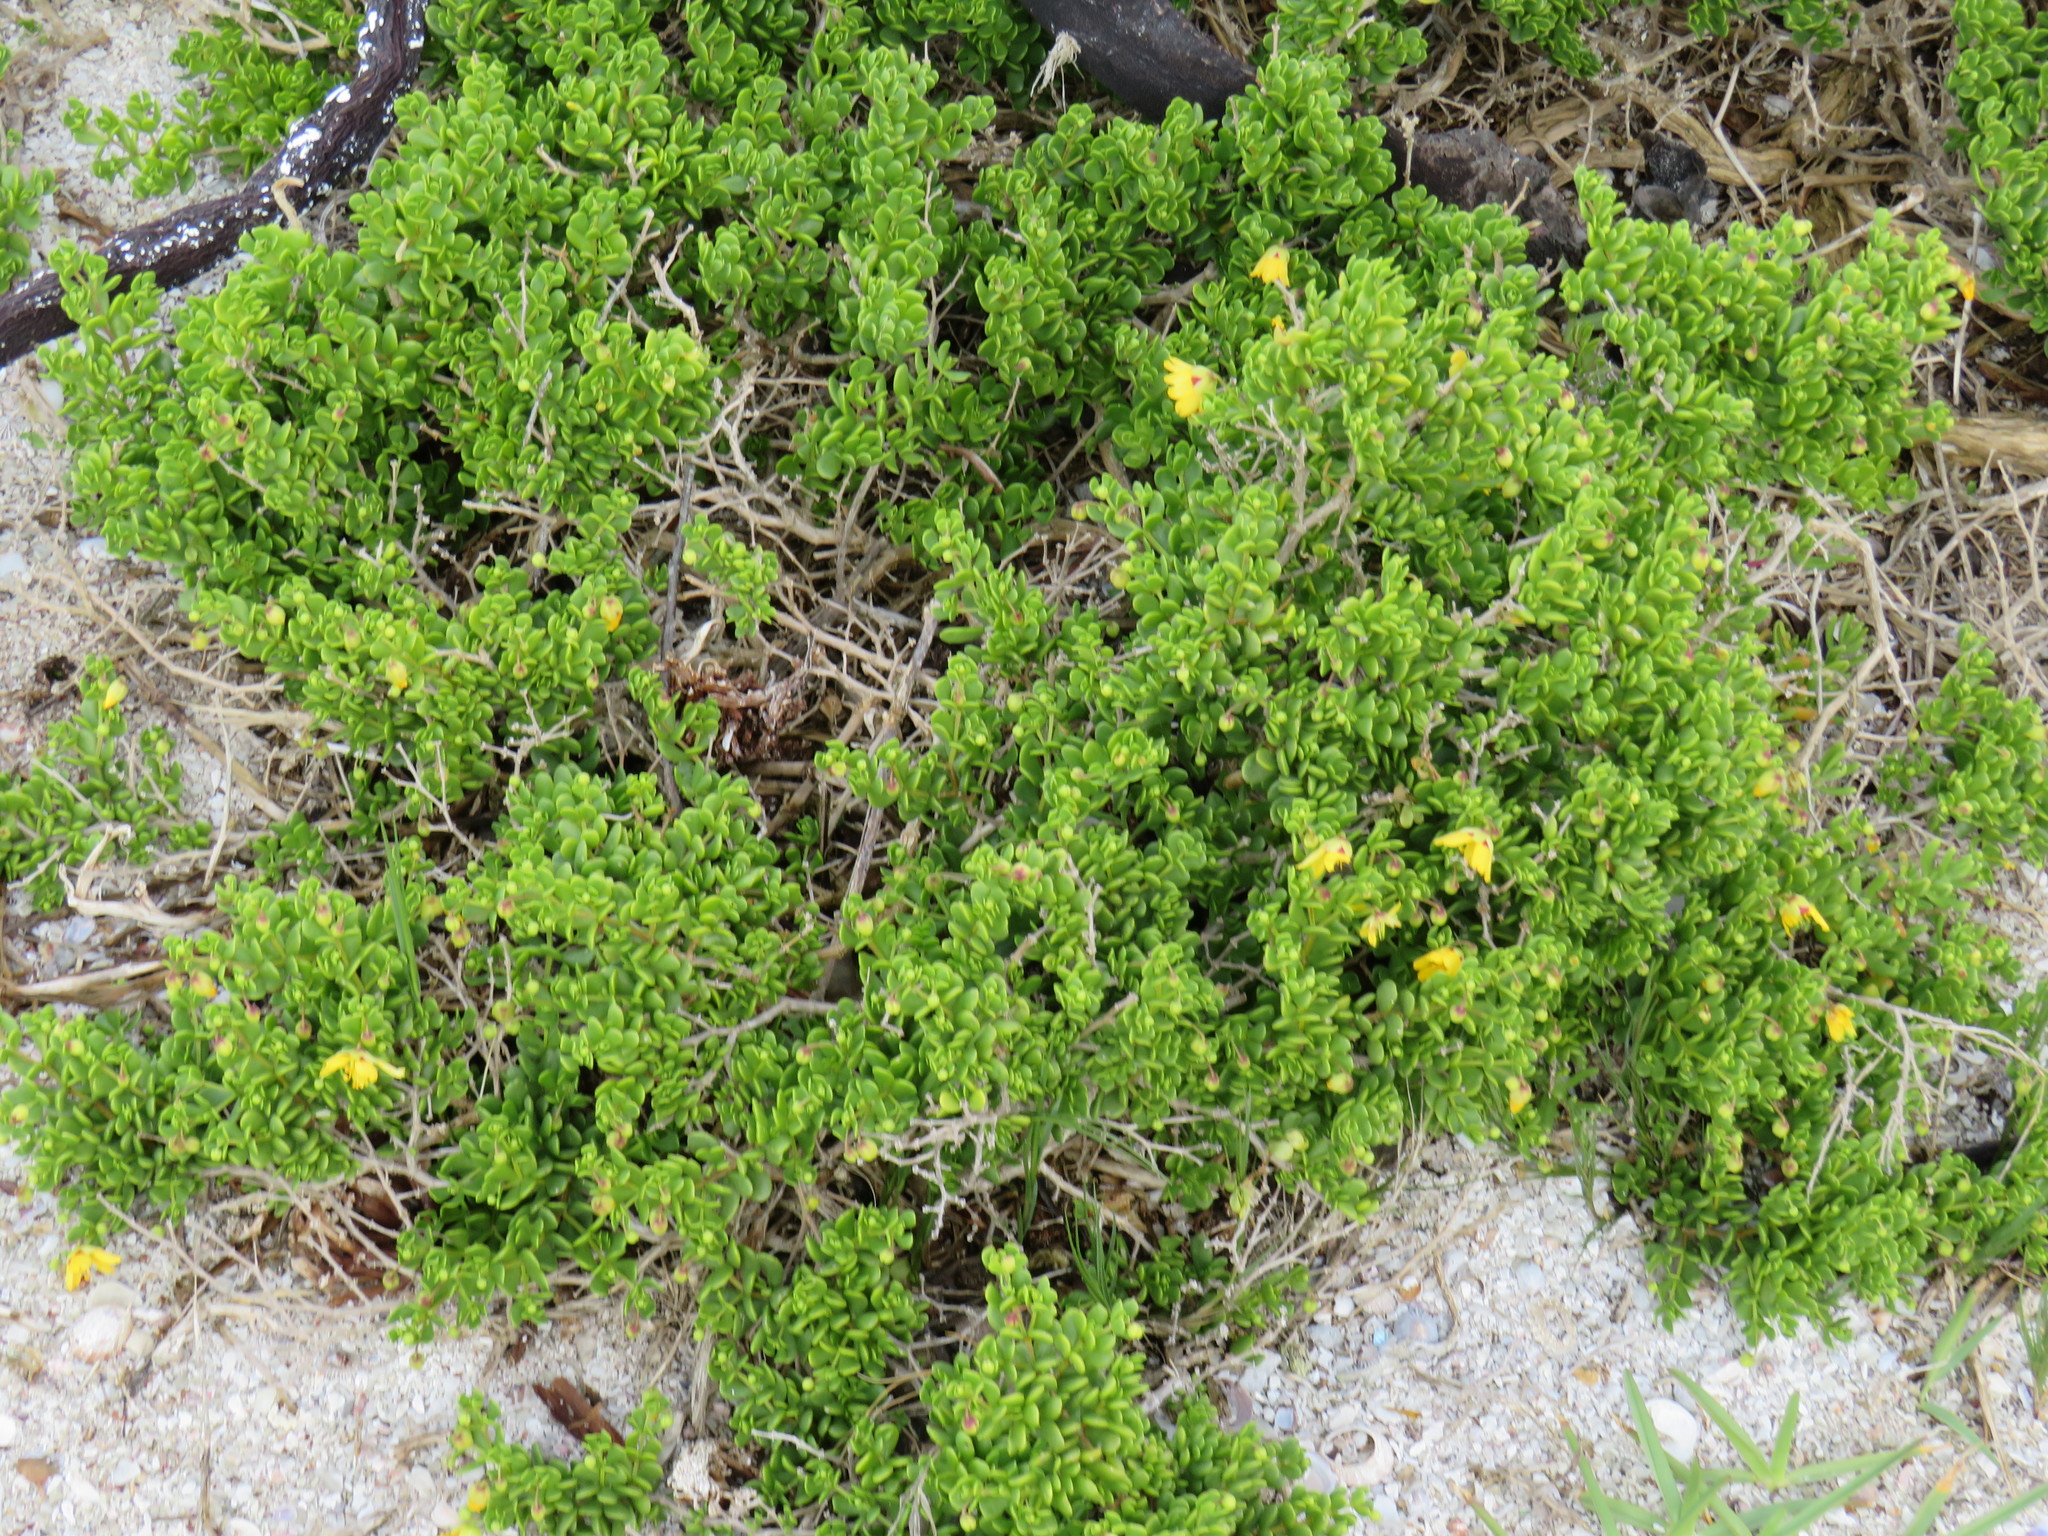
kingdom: Plantae
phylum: Tracheophyta
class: Magnoliopsida
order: Zygophyllales
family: Zygophyllaceae
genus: Roepera
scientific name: Roepera spinosa
